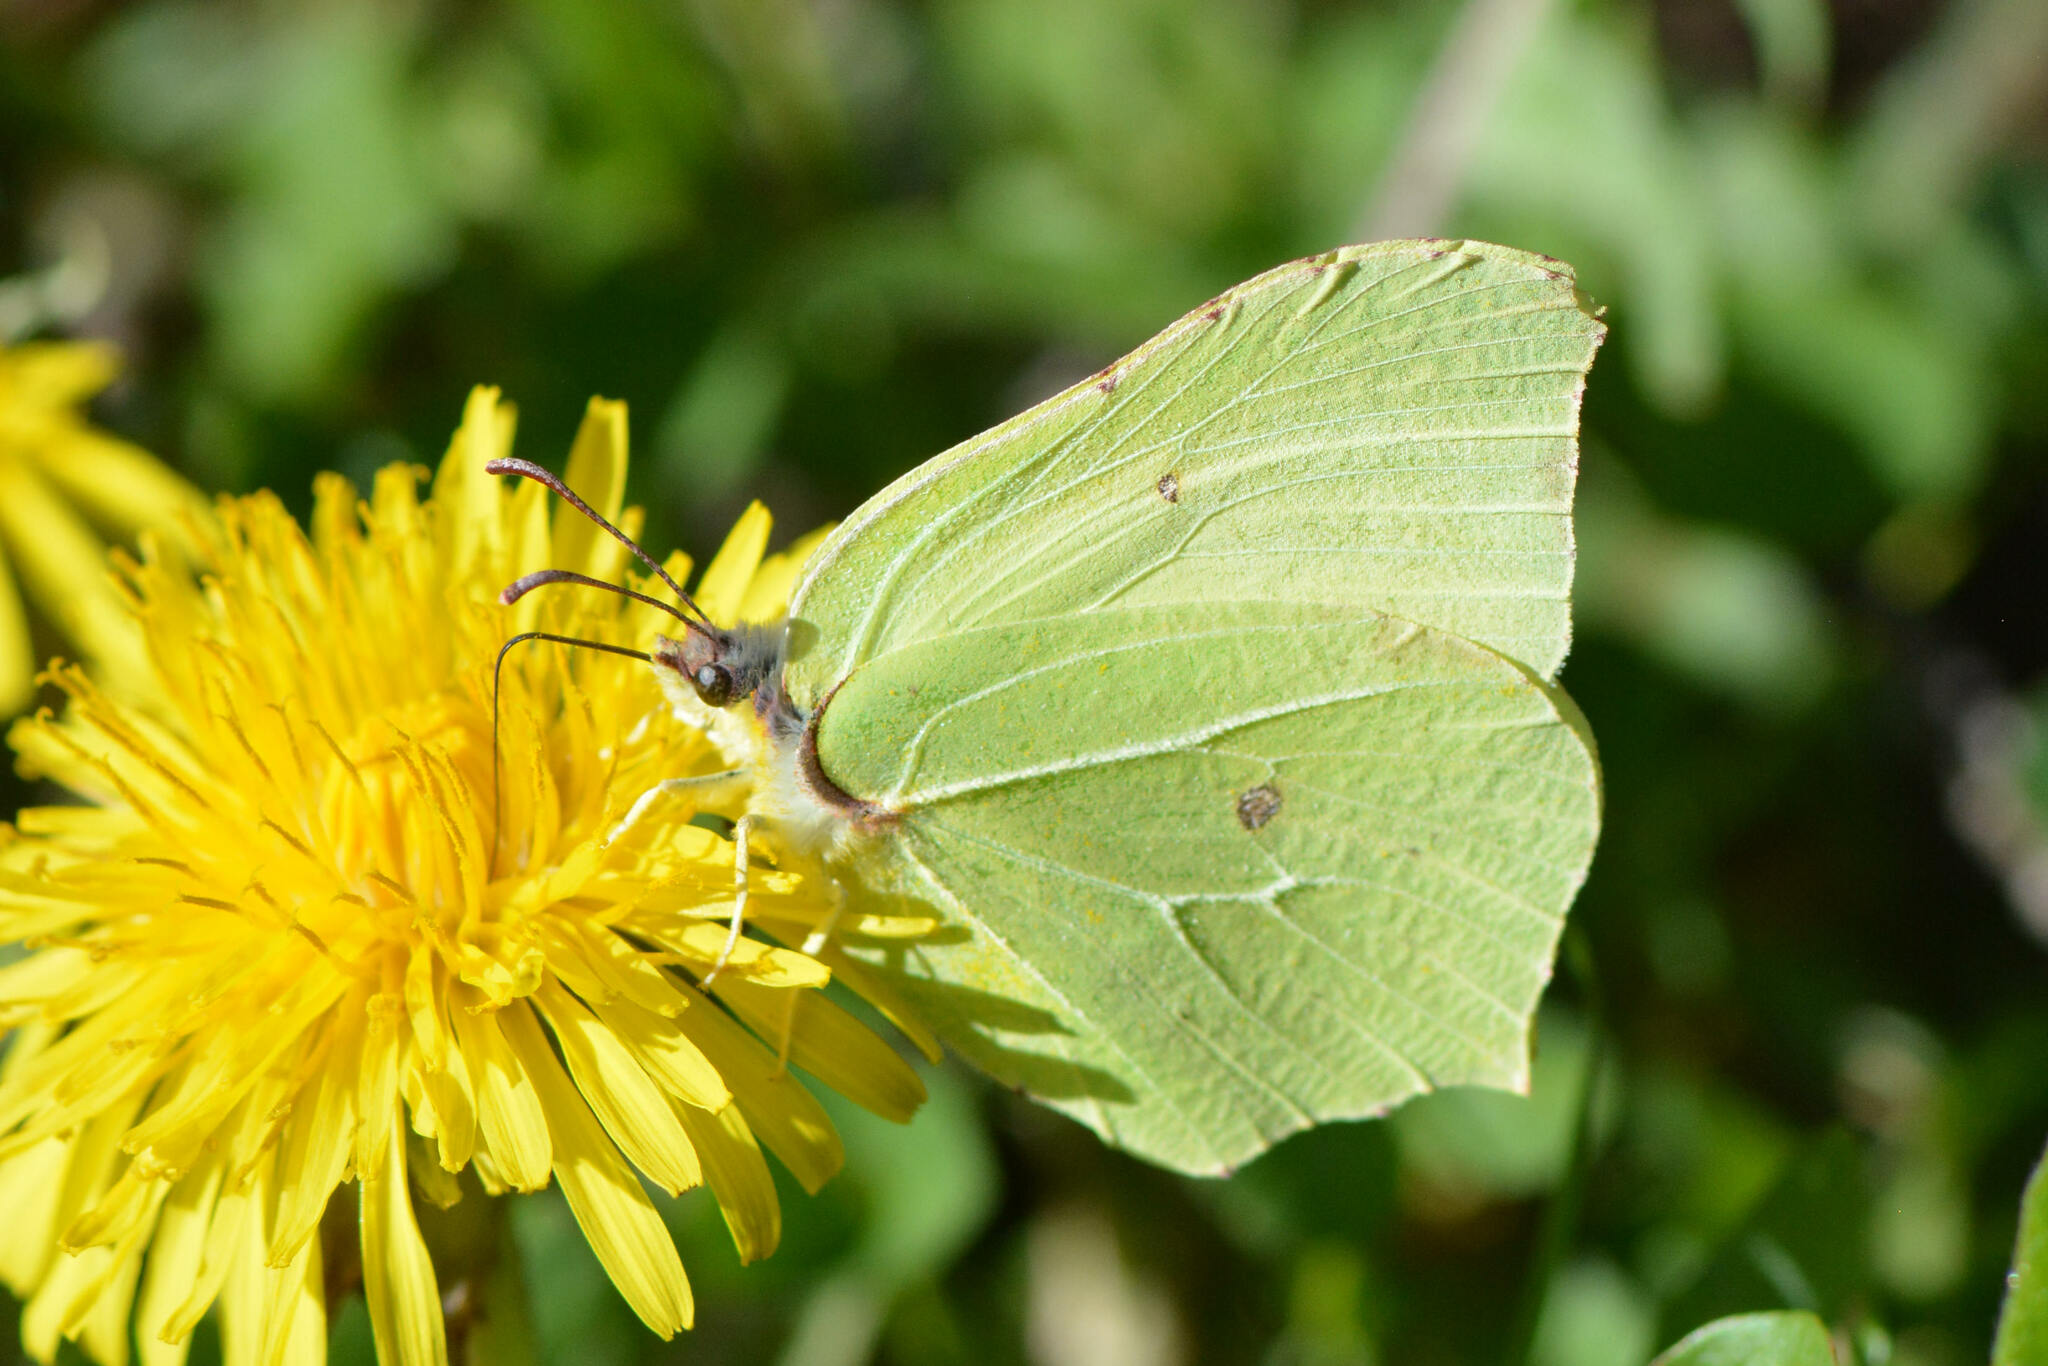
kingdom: Animalia
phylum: Arthropoda
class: Insecta
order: Lepidoptera
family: Pieridae
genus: Gonepteryx
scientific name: Gonepteryx rhamni
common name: Brimstone
